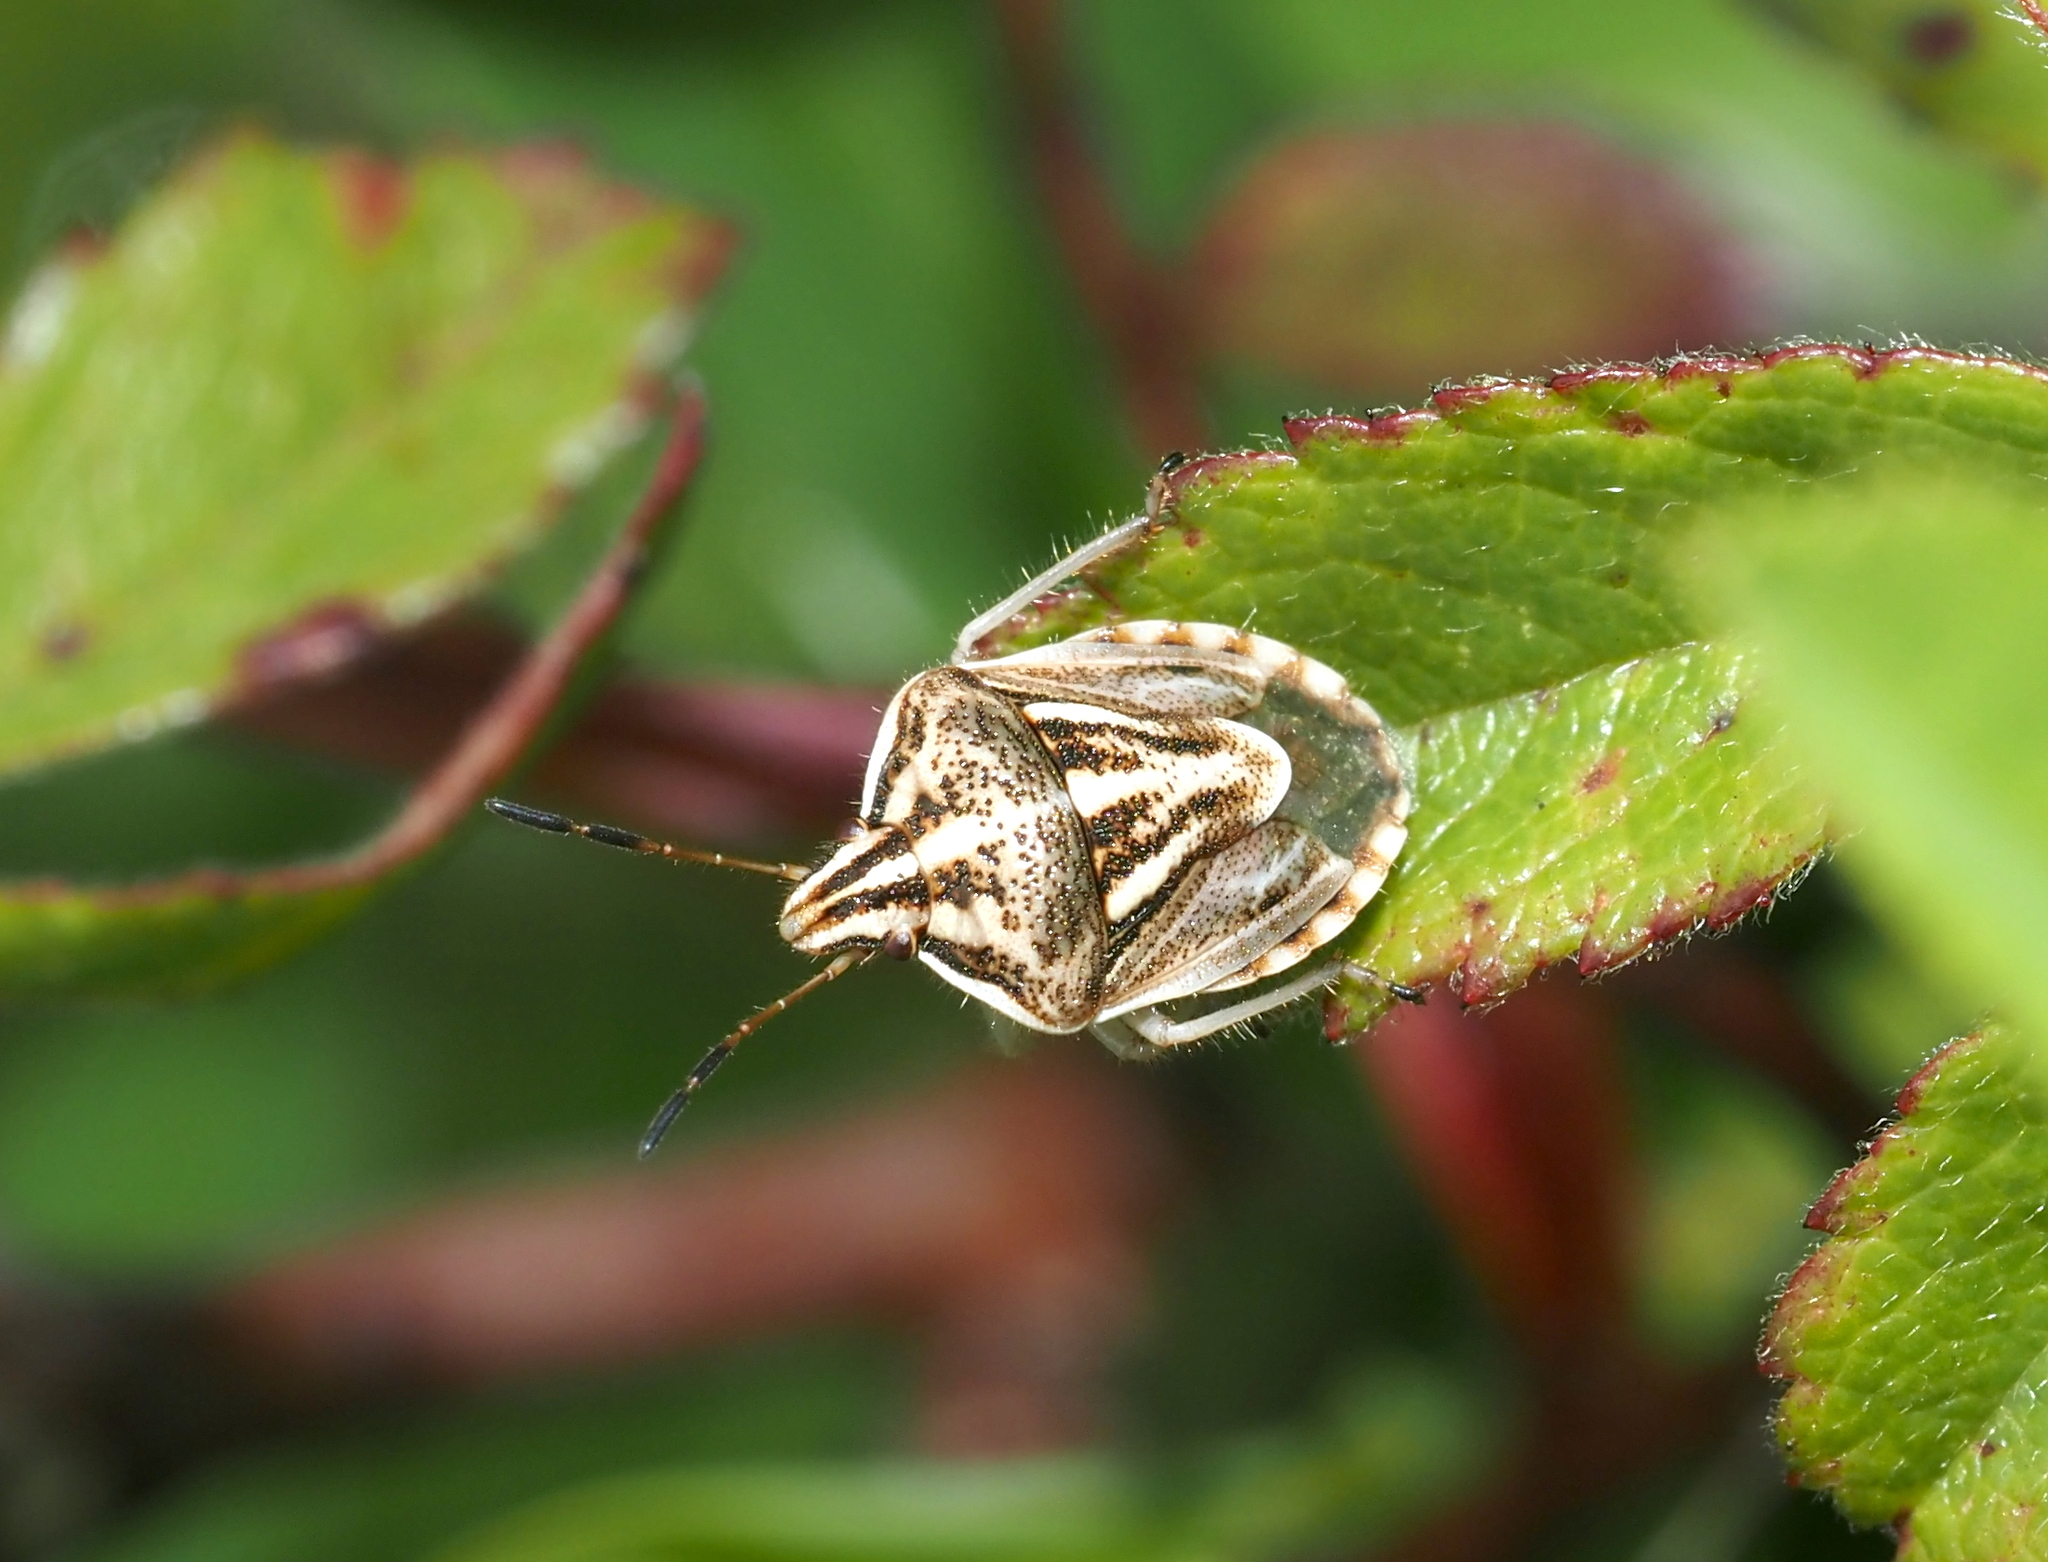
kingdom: Animalia
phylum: Arthropoda
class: Insecta
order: Hemiptera
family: Pentatomidae
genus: Trichopepla
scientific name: Trichopepla semivittata
